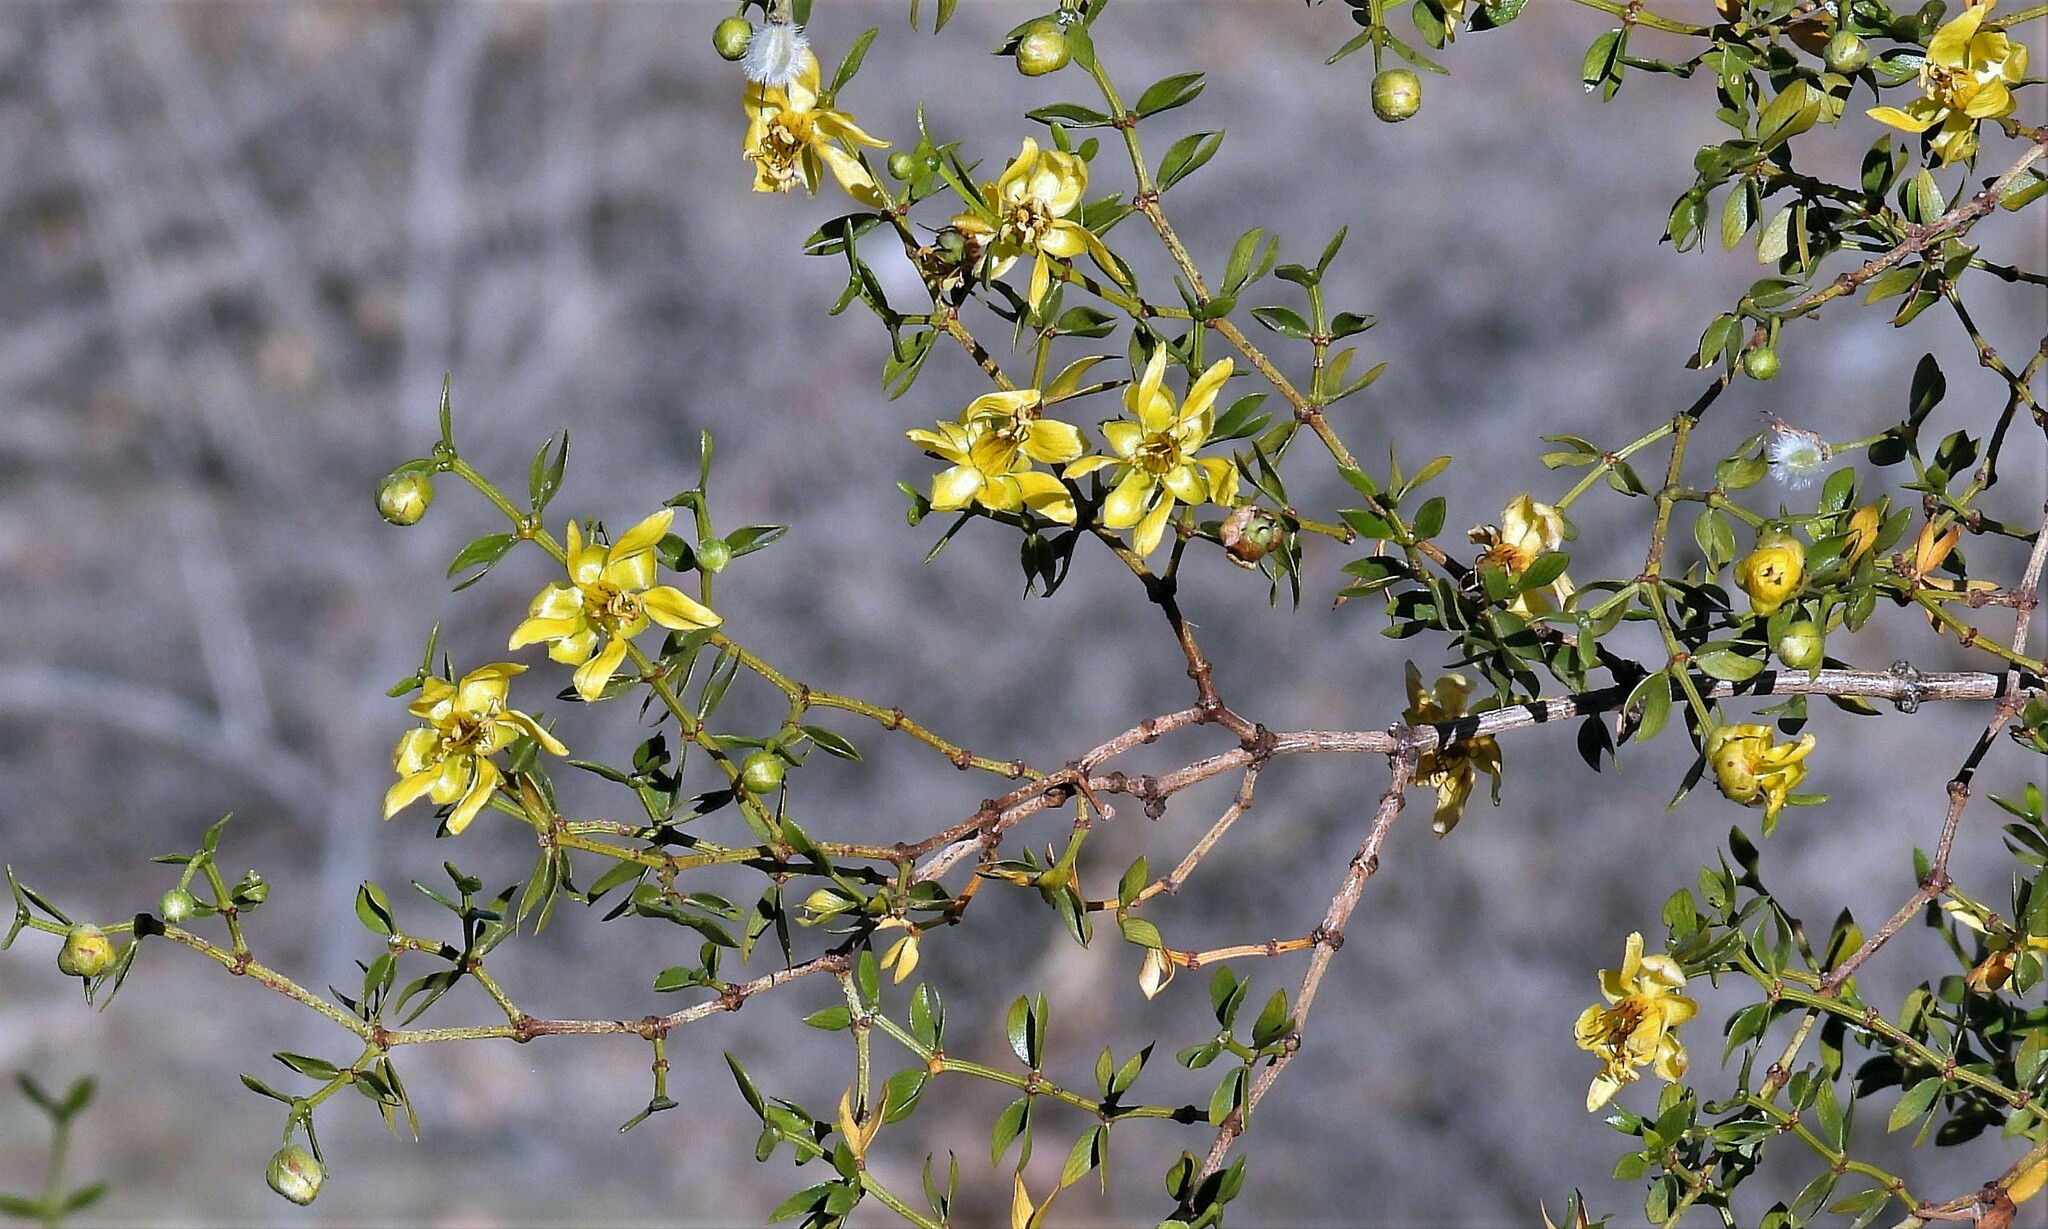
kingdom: Plantae
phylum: Tracheophyta
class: Magnoliopsida
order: Zygophyllales
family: Zygophyllaceae
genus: Larrea
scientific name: Larrea divaricata
